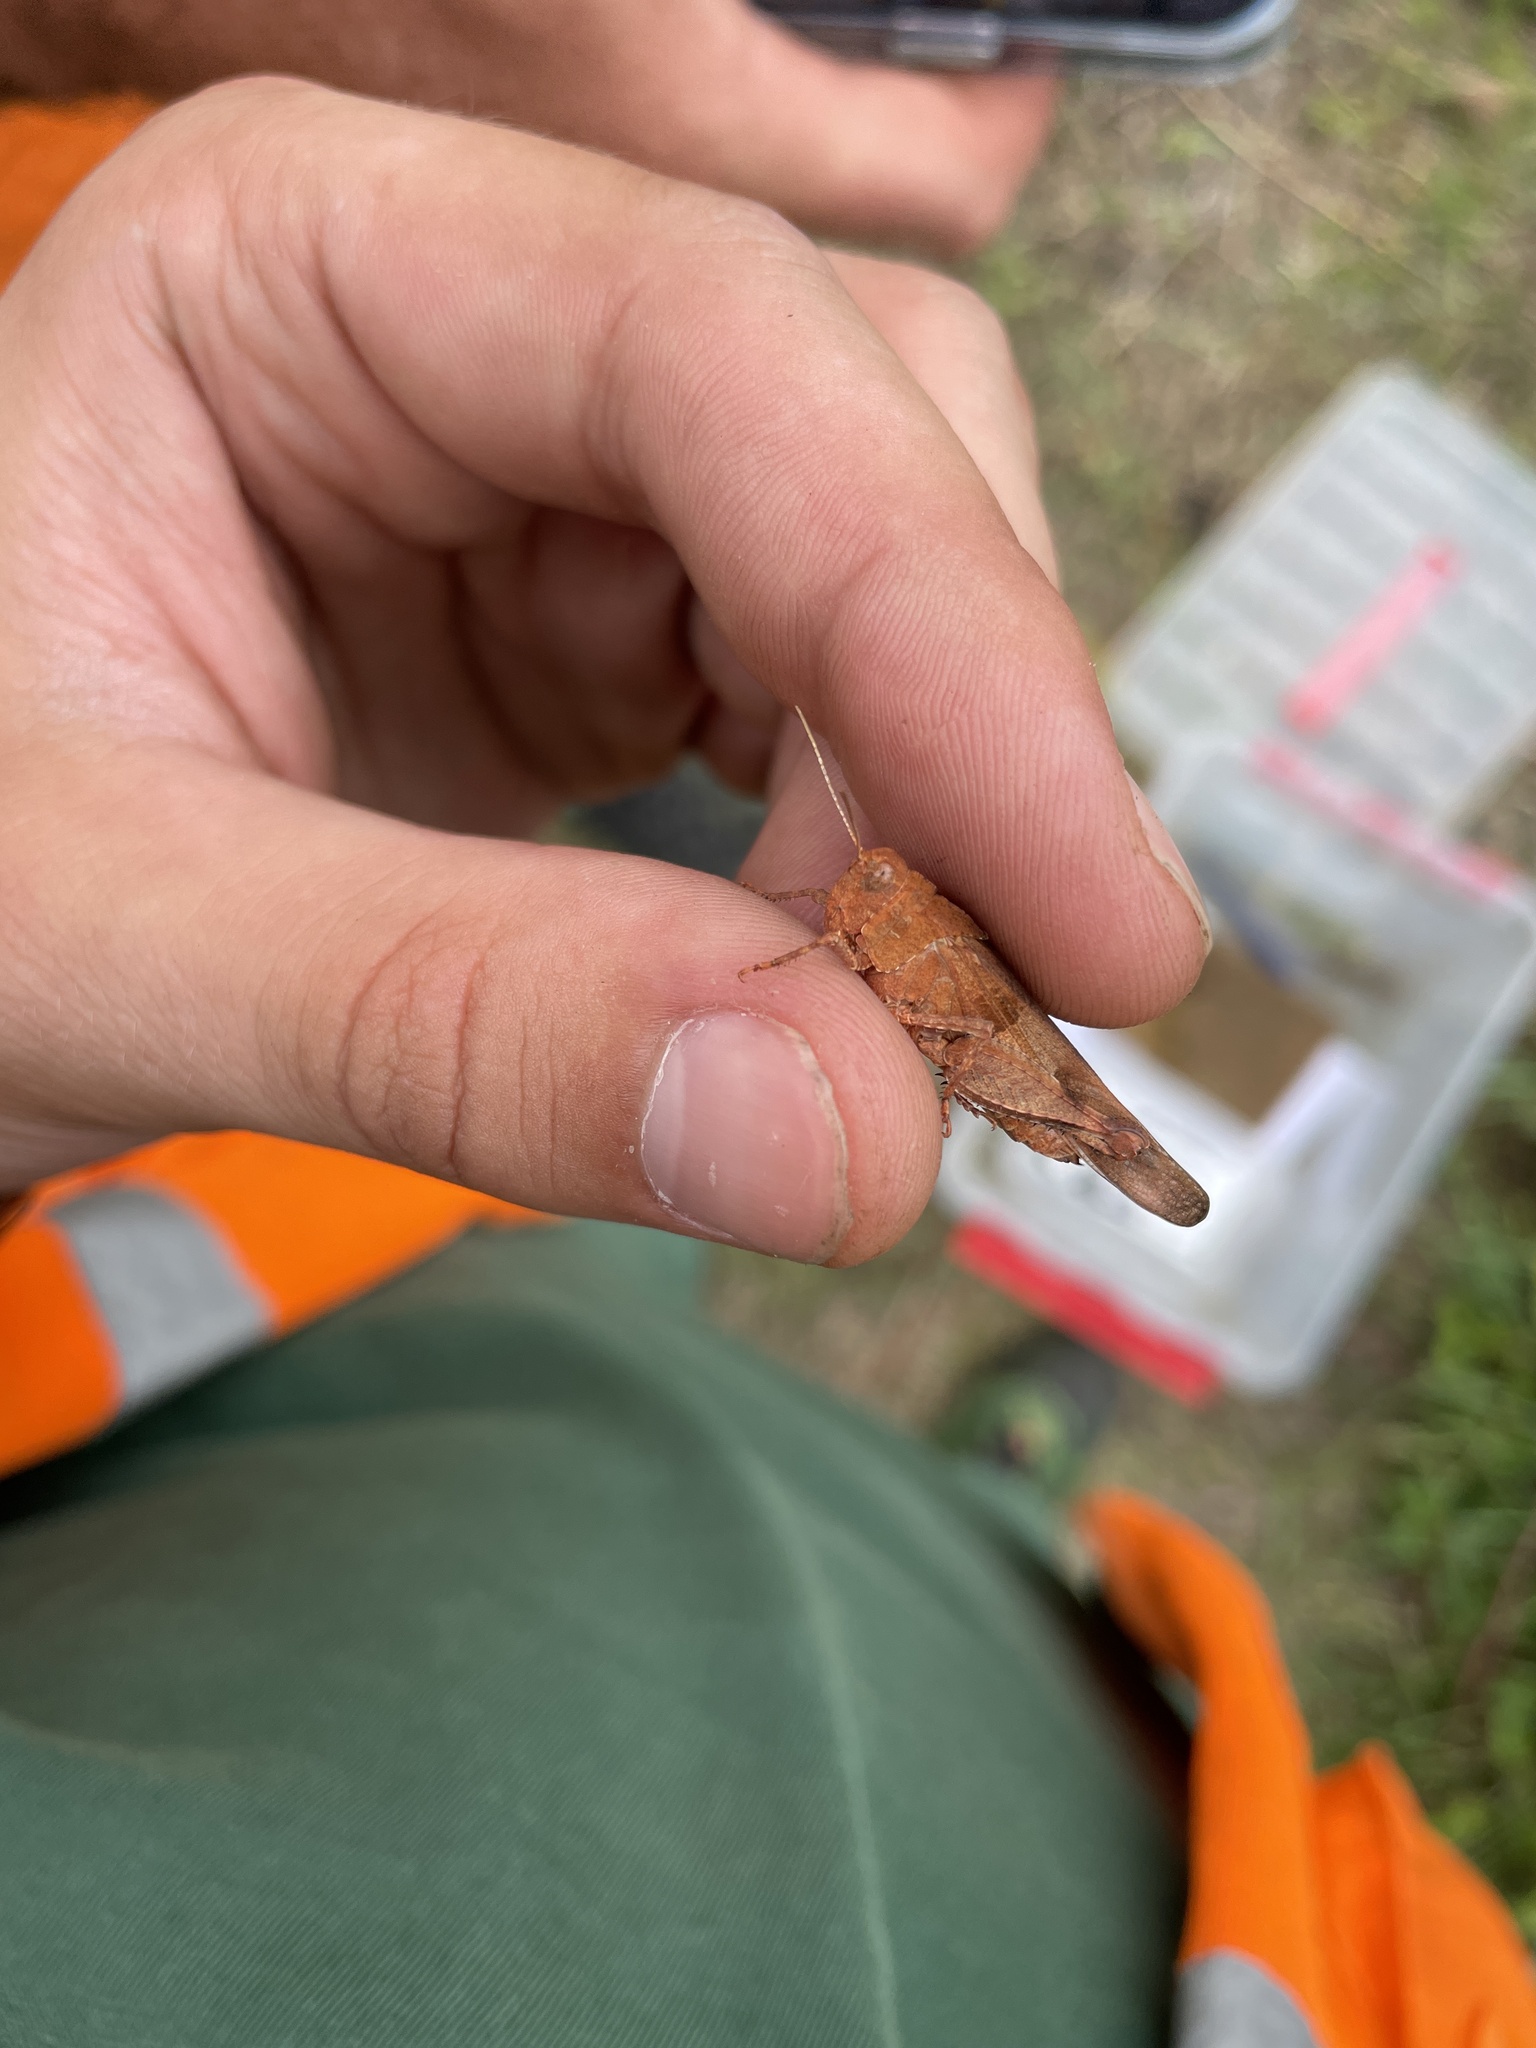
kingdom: Animalia
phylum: Arthropoda
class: Insecta
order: Orthoptera
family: Acrididae
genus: Oedipoda
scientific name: Oedipoda caerulescens
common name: Blue-winged grasshopper
